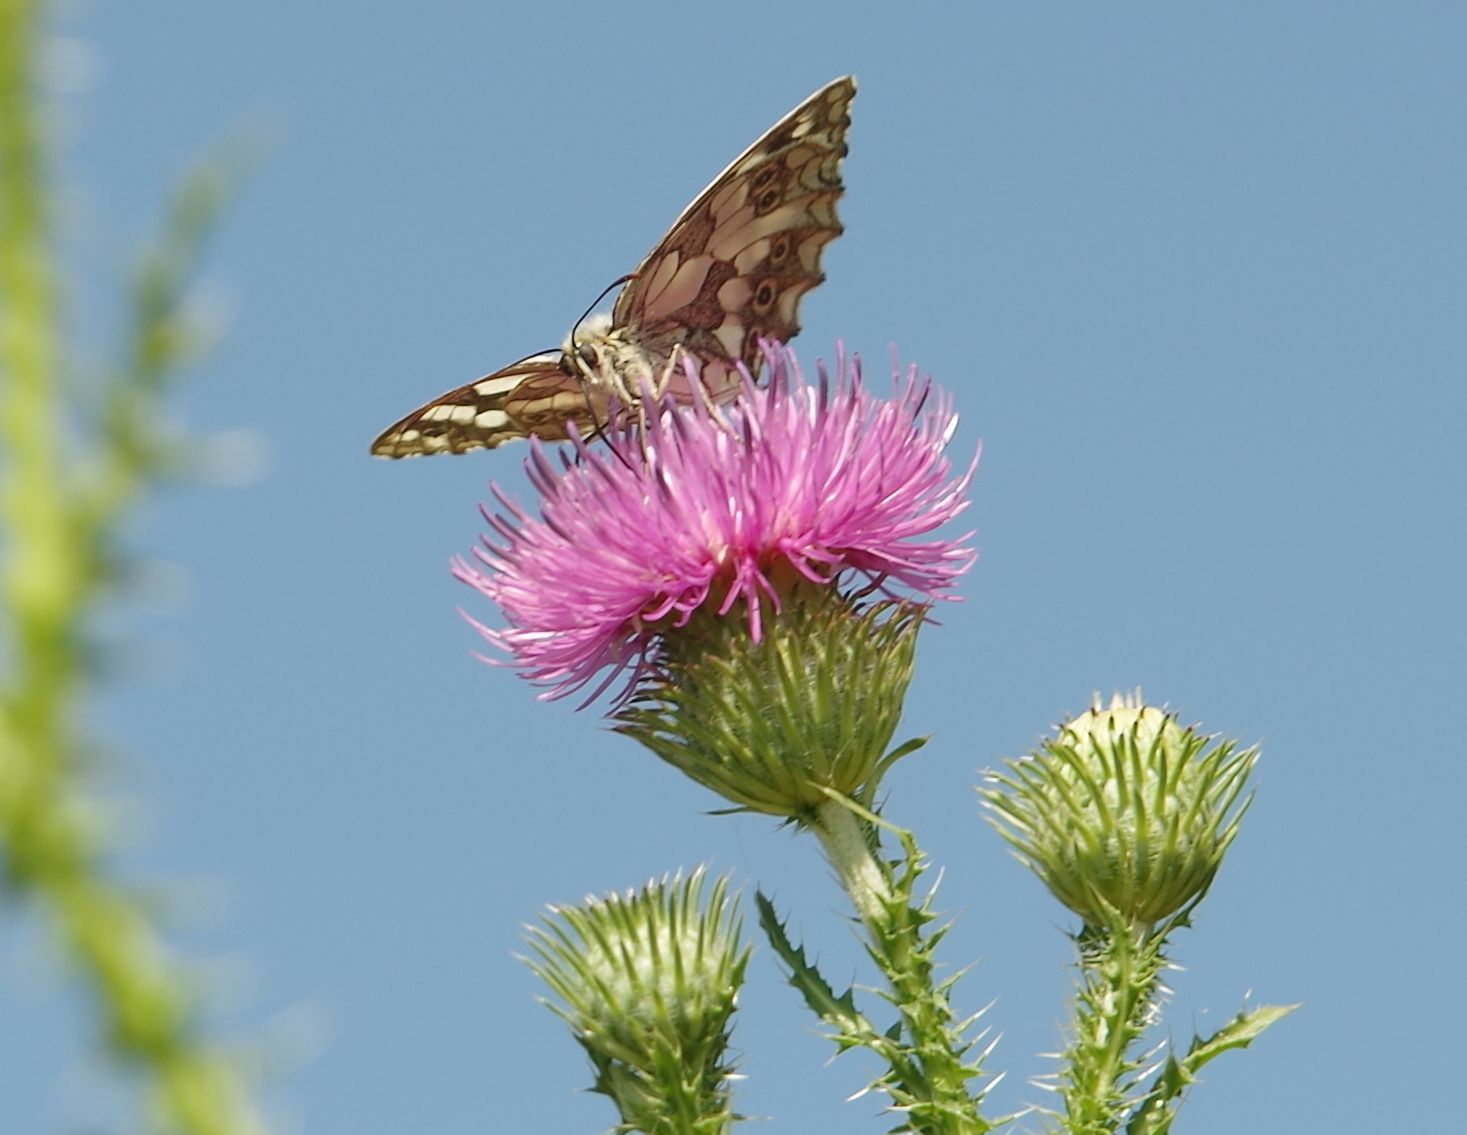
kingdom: Animalia
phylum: Arthropoda
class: Insecta
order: Lepidoptera
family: Nymphalidae
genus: Melanargia
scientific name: Melanargia galathea
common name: Marbled white
